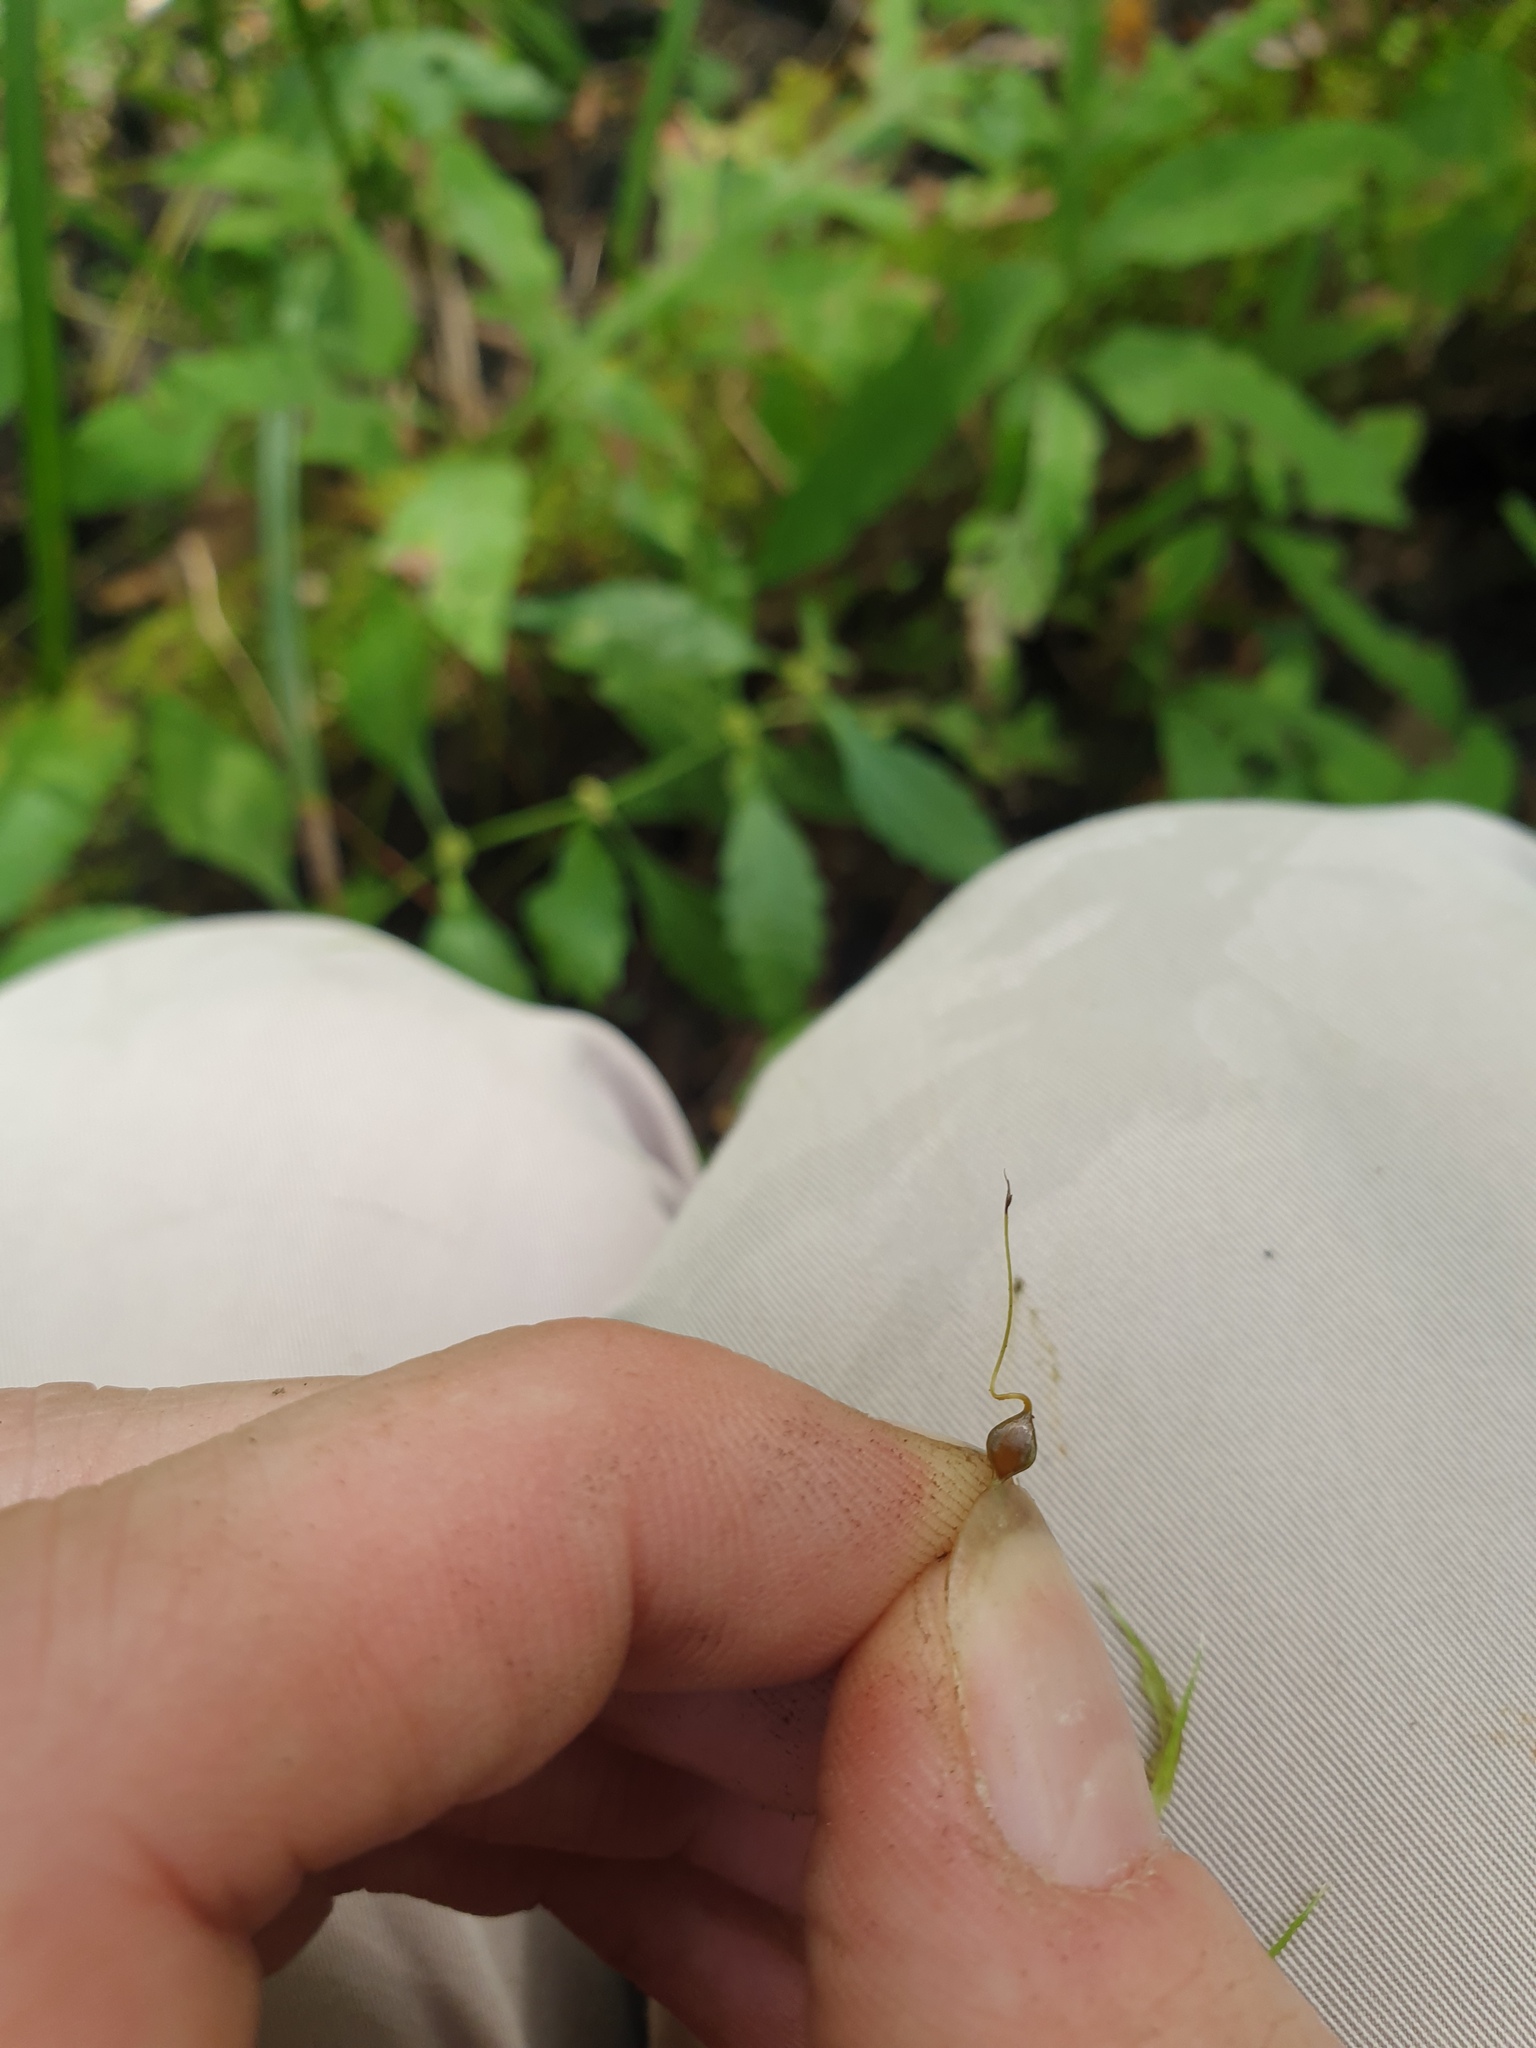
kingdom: Plantae
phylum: Tracheophyta
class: Liliopsida
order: Poales
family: Cyperaceae
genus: Carex
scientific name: Carex lupulina
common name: Hop sedge
